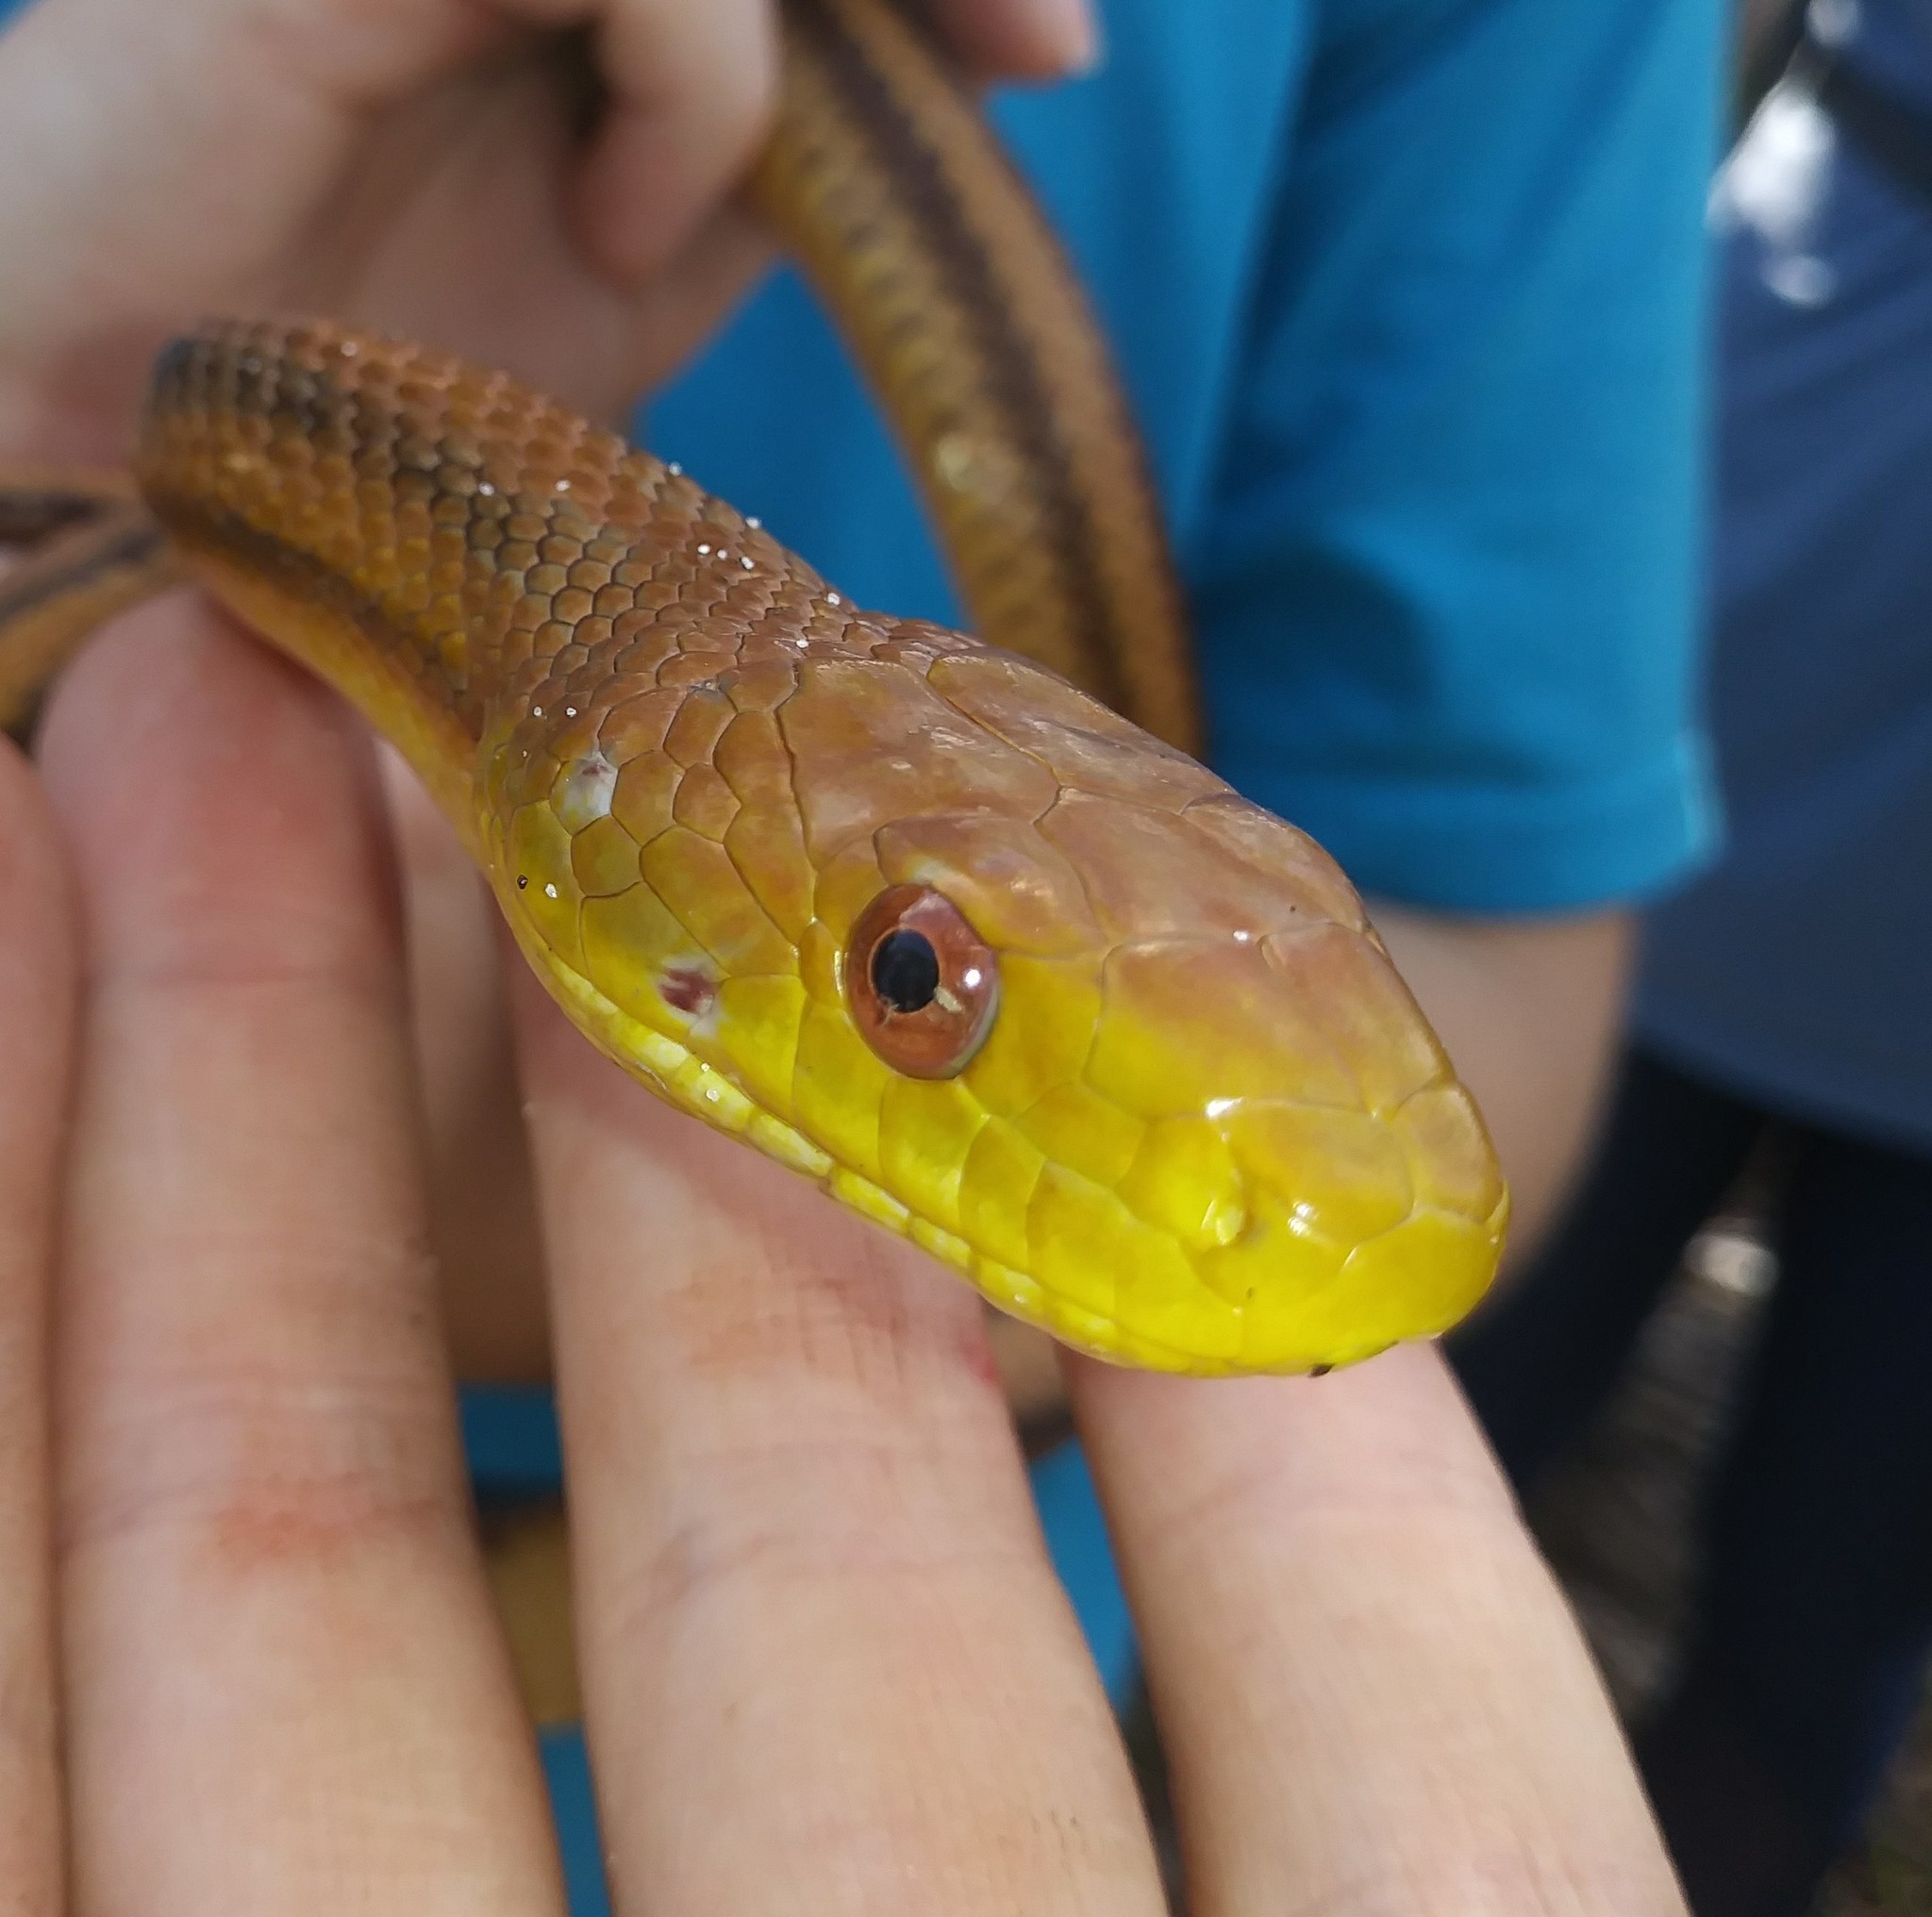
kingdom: Animalia
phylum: Chordata
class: Squamata
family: Colubridae
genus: Pantherophis
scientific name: Pantherophis alleghaniensis
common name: Eastern rat snake
